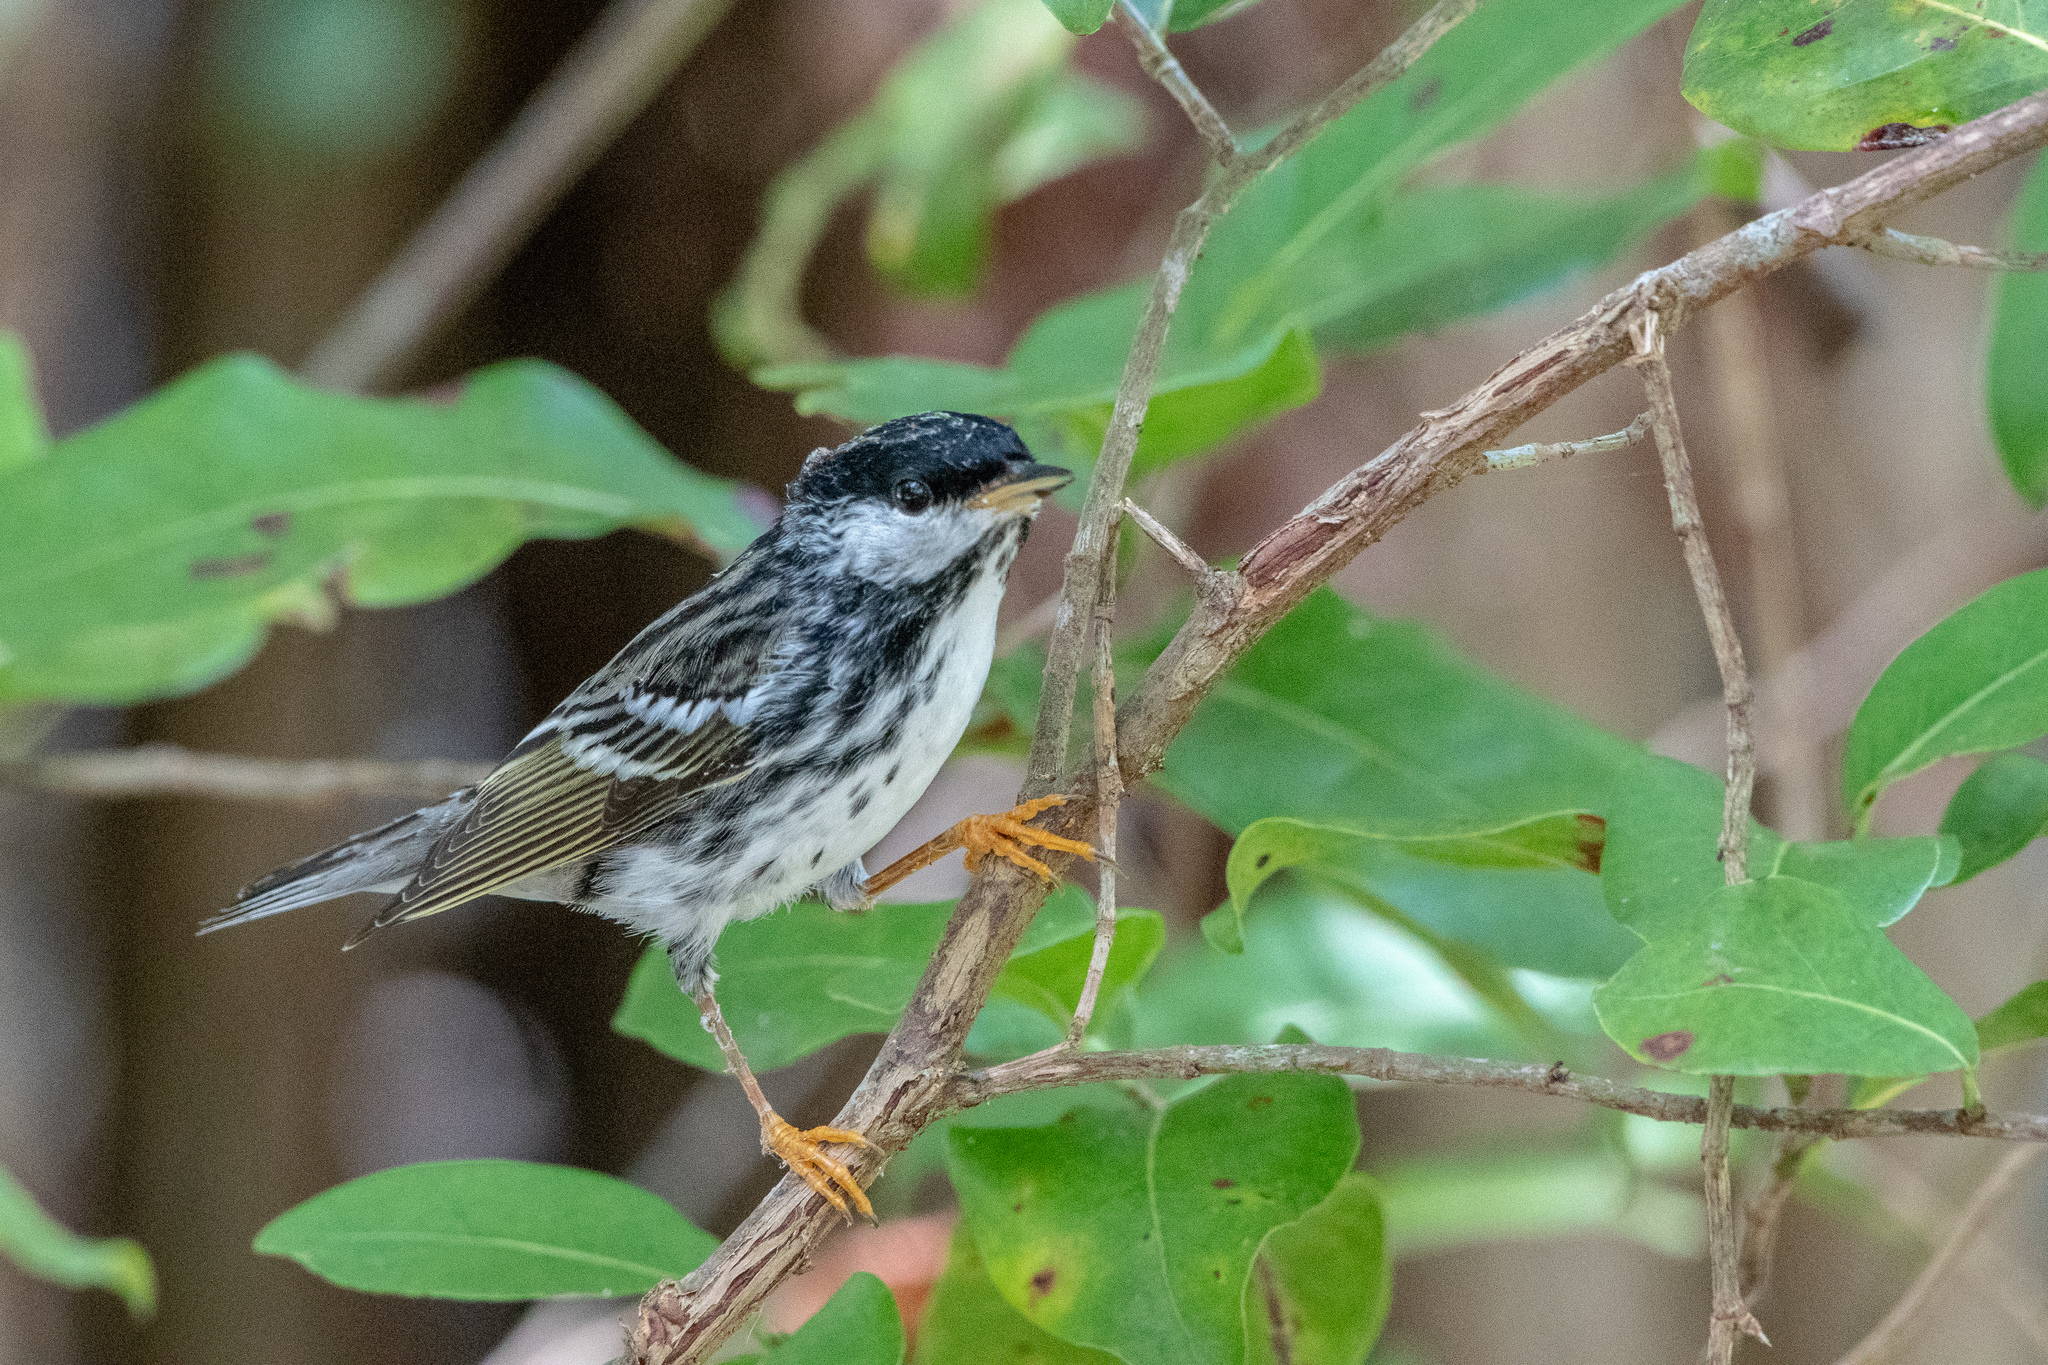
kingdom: Animalia
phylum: Chordata
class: Aves
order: Passeriformes
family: Parulidae
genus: Setophaga
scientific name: Setophaga striata
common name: Blackpoll warbler
